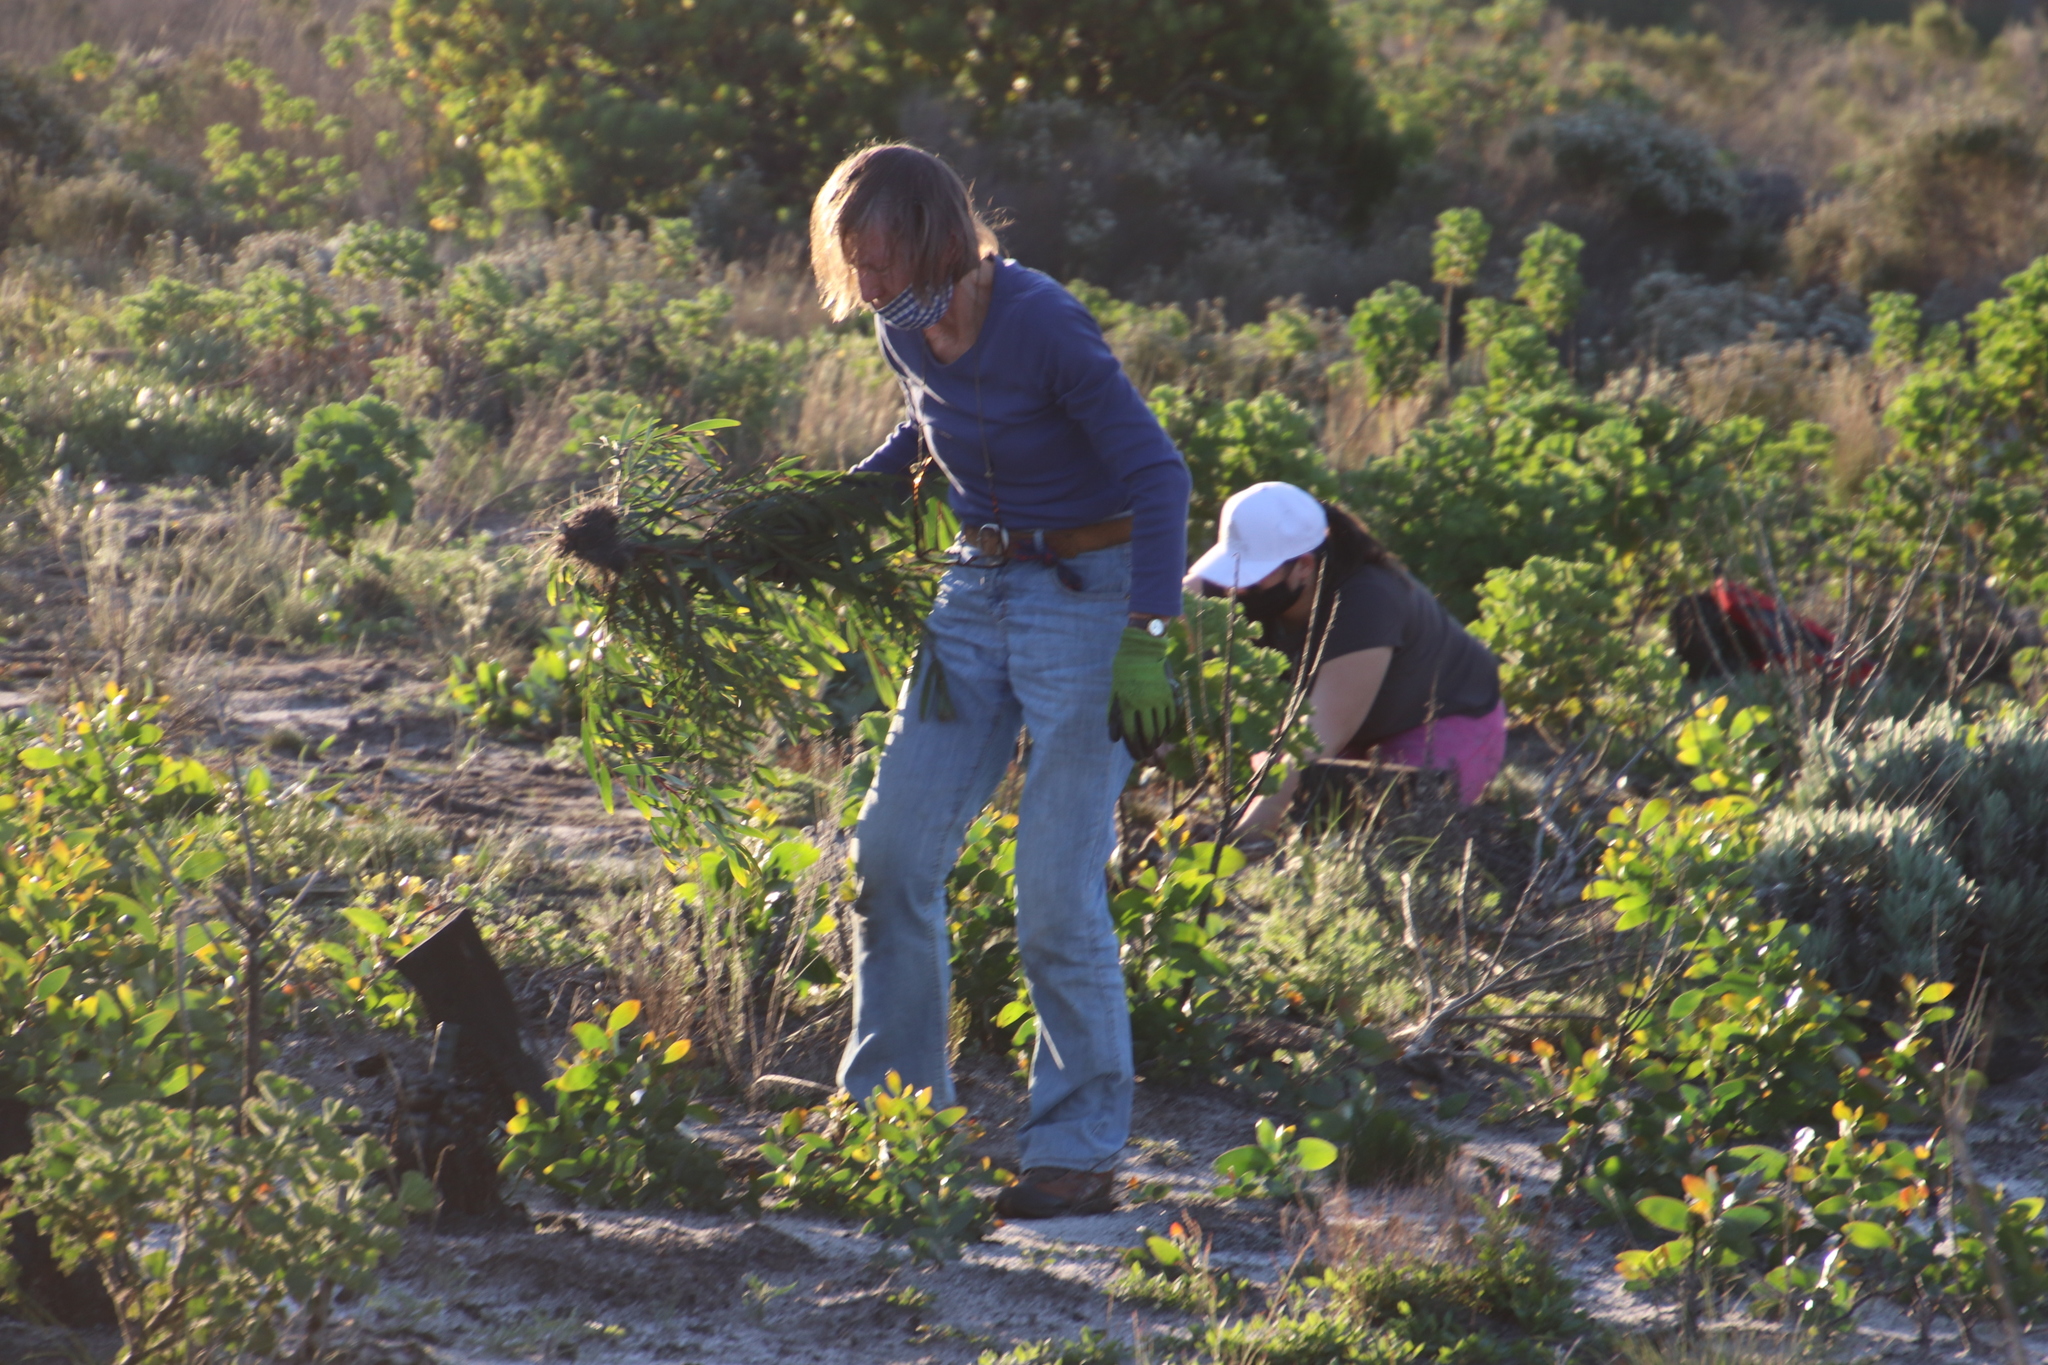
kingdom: Plantae
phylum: Tracheophyta
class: Magnoliopsida
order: Fabales
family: Fabaceae
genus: Acacia
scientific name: Acacia longifolia
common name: Sydney golden wattle
